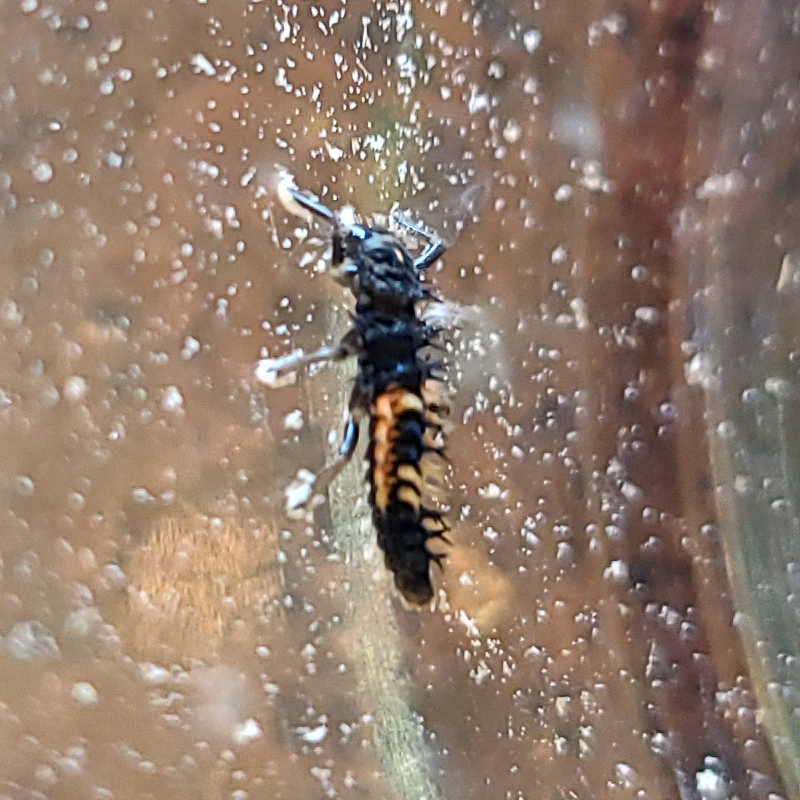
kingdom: Animalia
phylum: Arthropoda
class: Insecta
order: Coleoptera
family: Coccinellidae
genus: Harmonia
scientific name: Harmonia axyridis
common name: Harlequin ladybird
